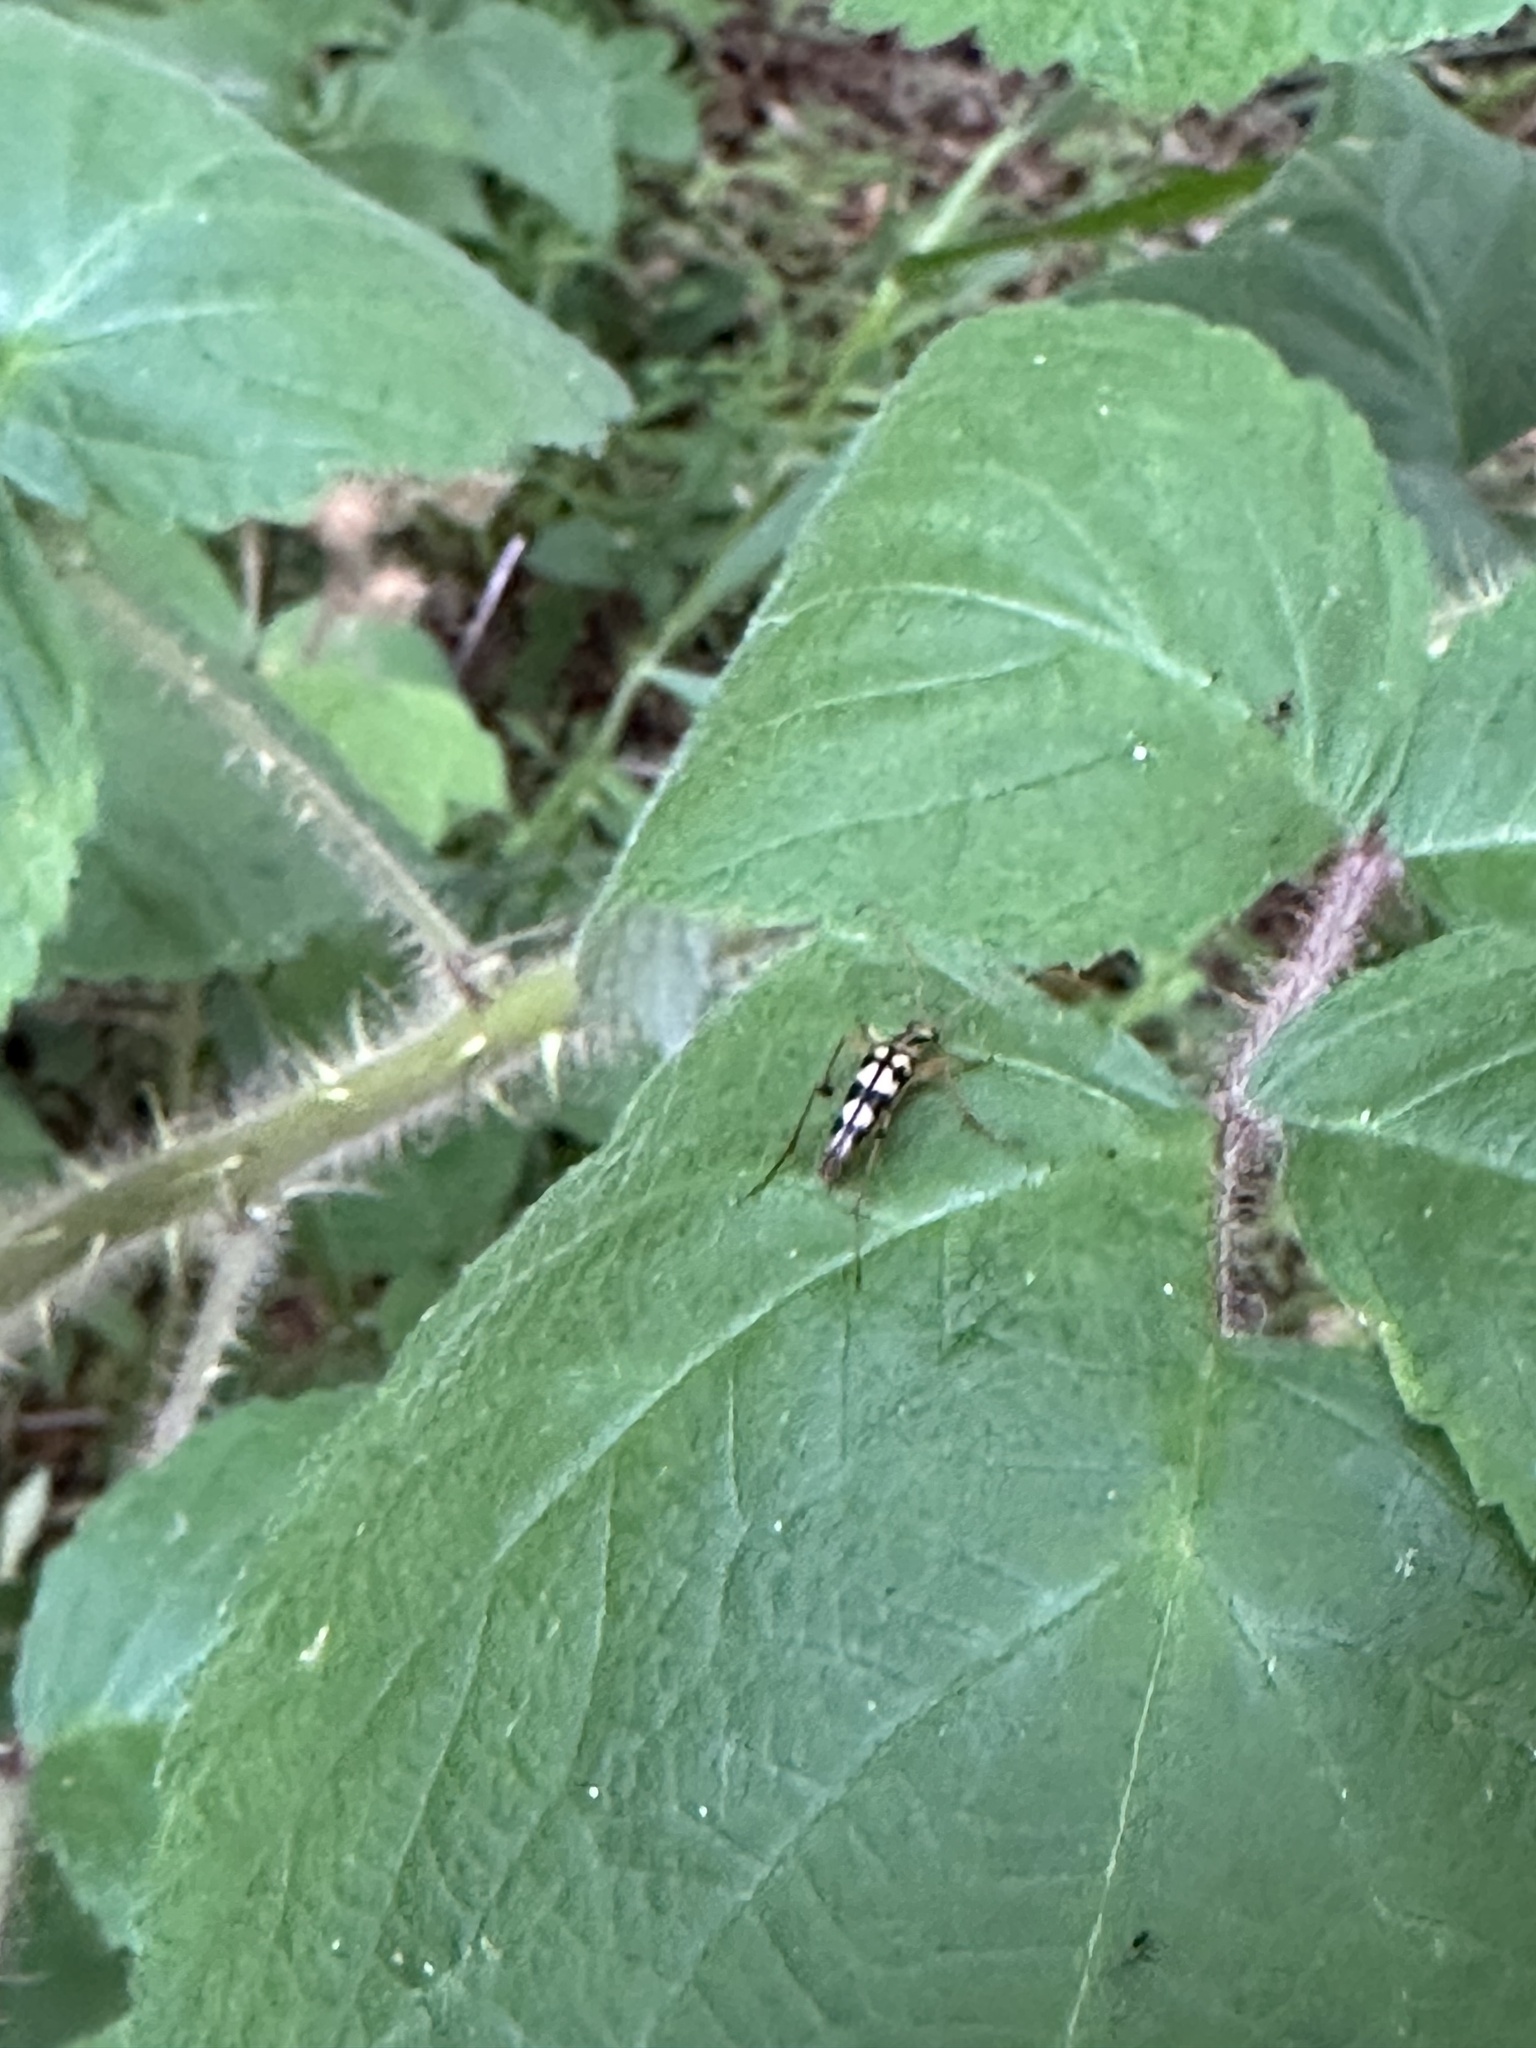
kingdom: Animalia
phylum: Arthropoda
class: Insecta
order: Coleoptera
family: Cerambycidae
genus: Strangalia
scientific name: Strangalia luteicornis
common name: Yellow-horned flower longhorn beetle
